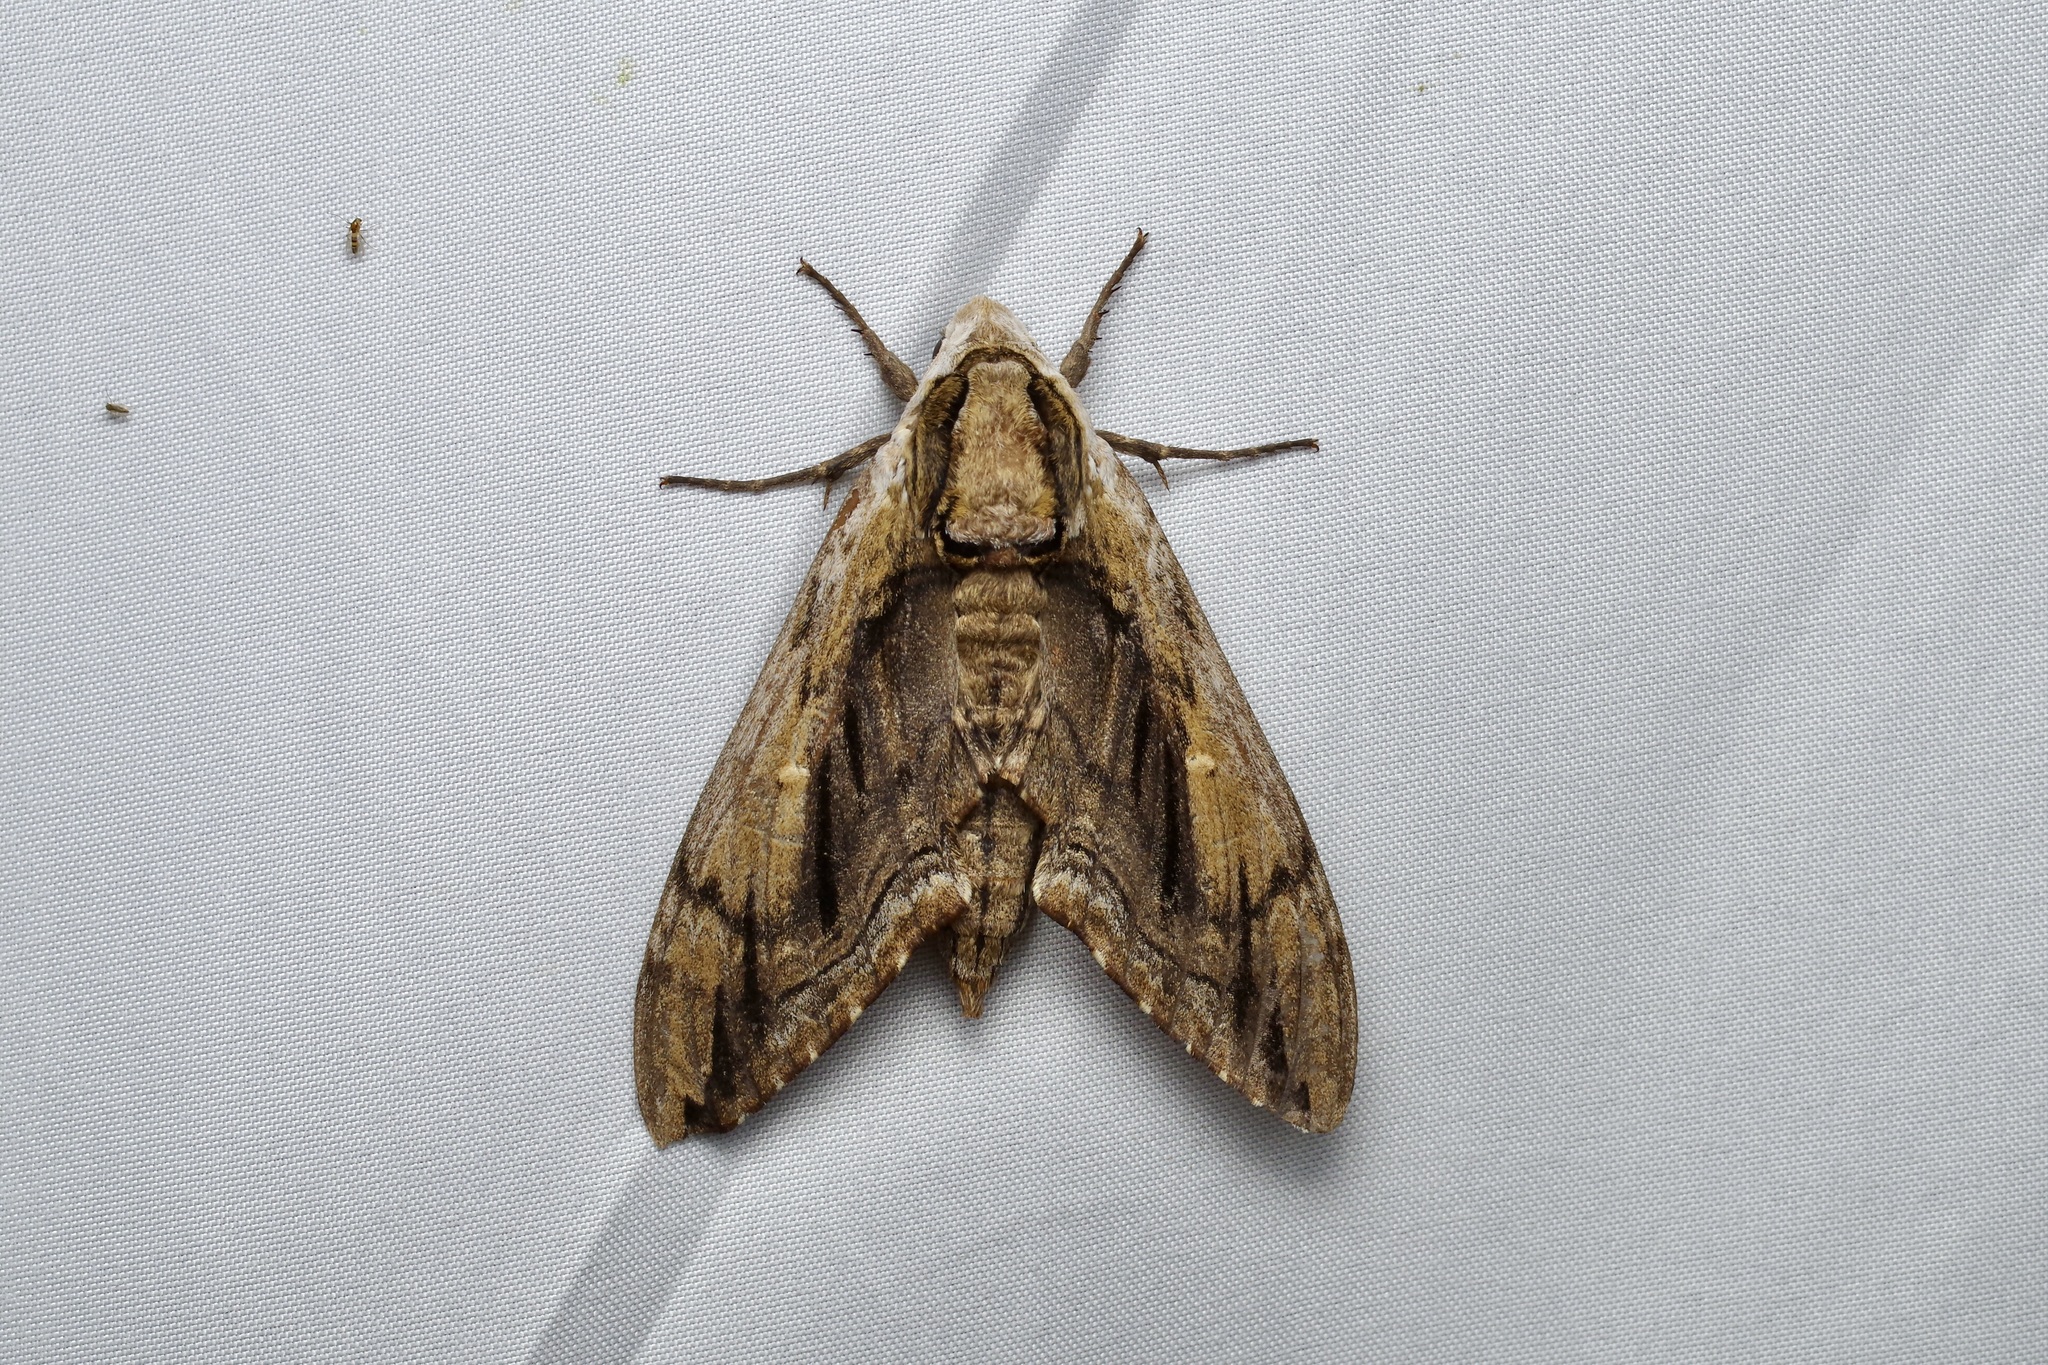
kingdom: Animalia
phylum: Arthropoda
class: Insecta
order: Lepidoptera
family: Sphingidae
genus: Ceratomia
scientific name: Ceratomia amyntor
